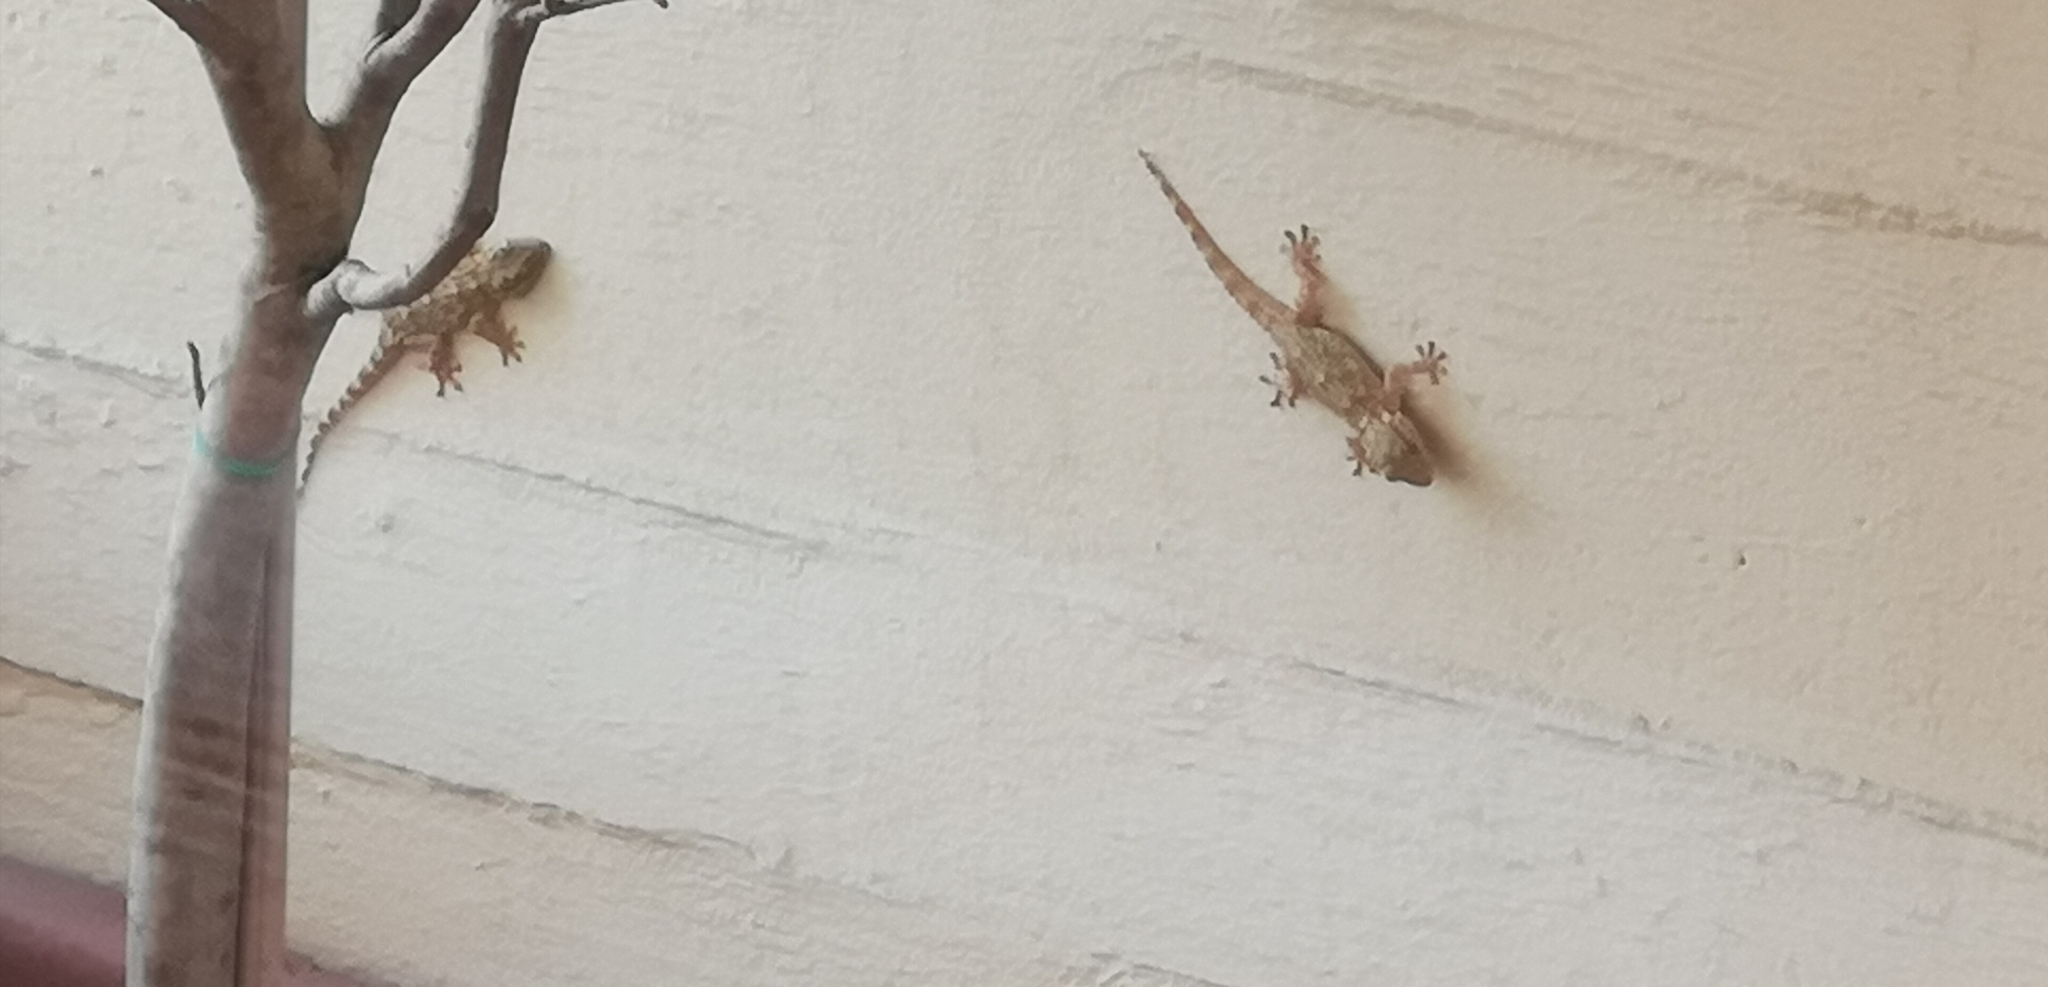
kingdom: Animalia
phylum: Chordata
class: Squamata
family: Phyllodactylidae
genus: Tarentola
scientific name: Tarentola mauritanica
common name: Moorish gecko
